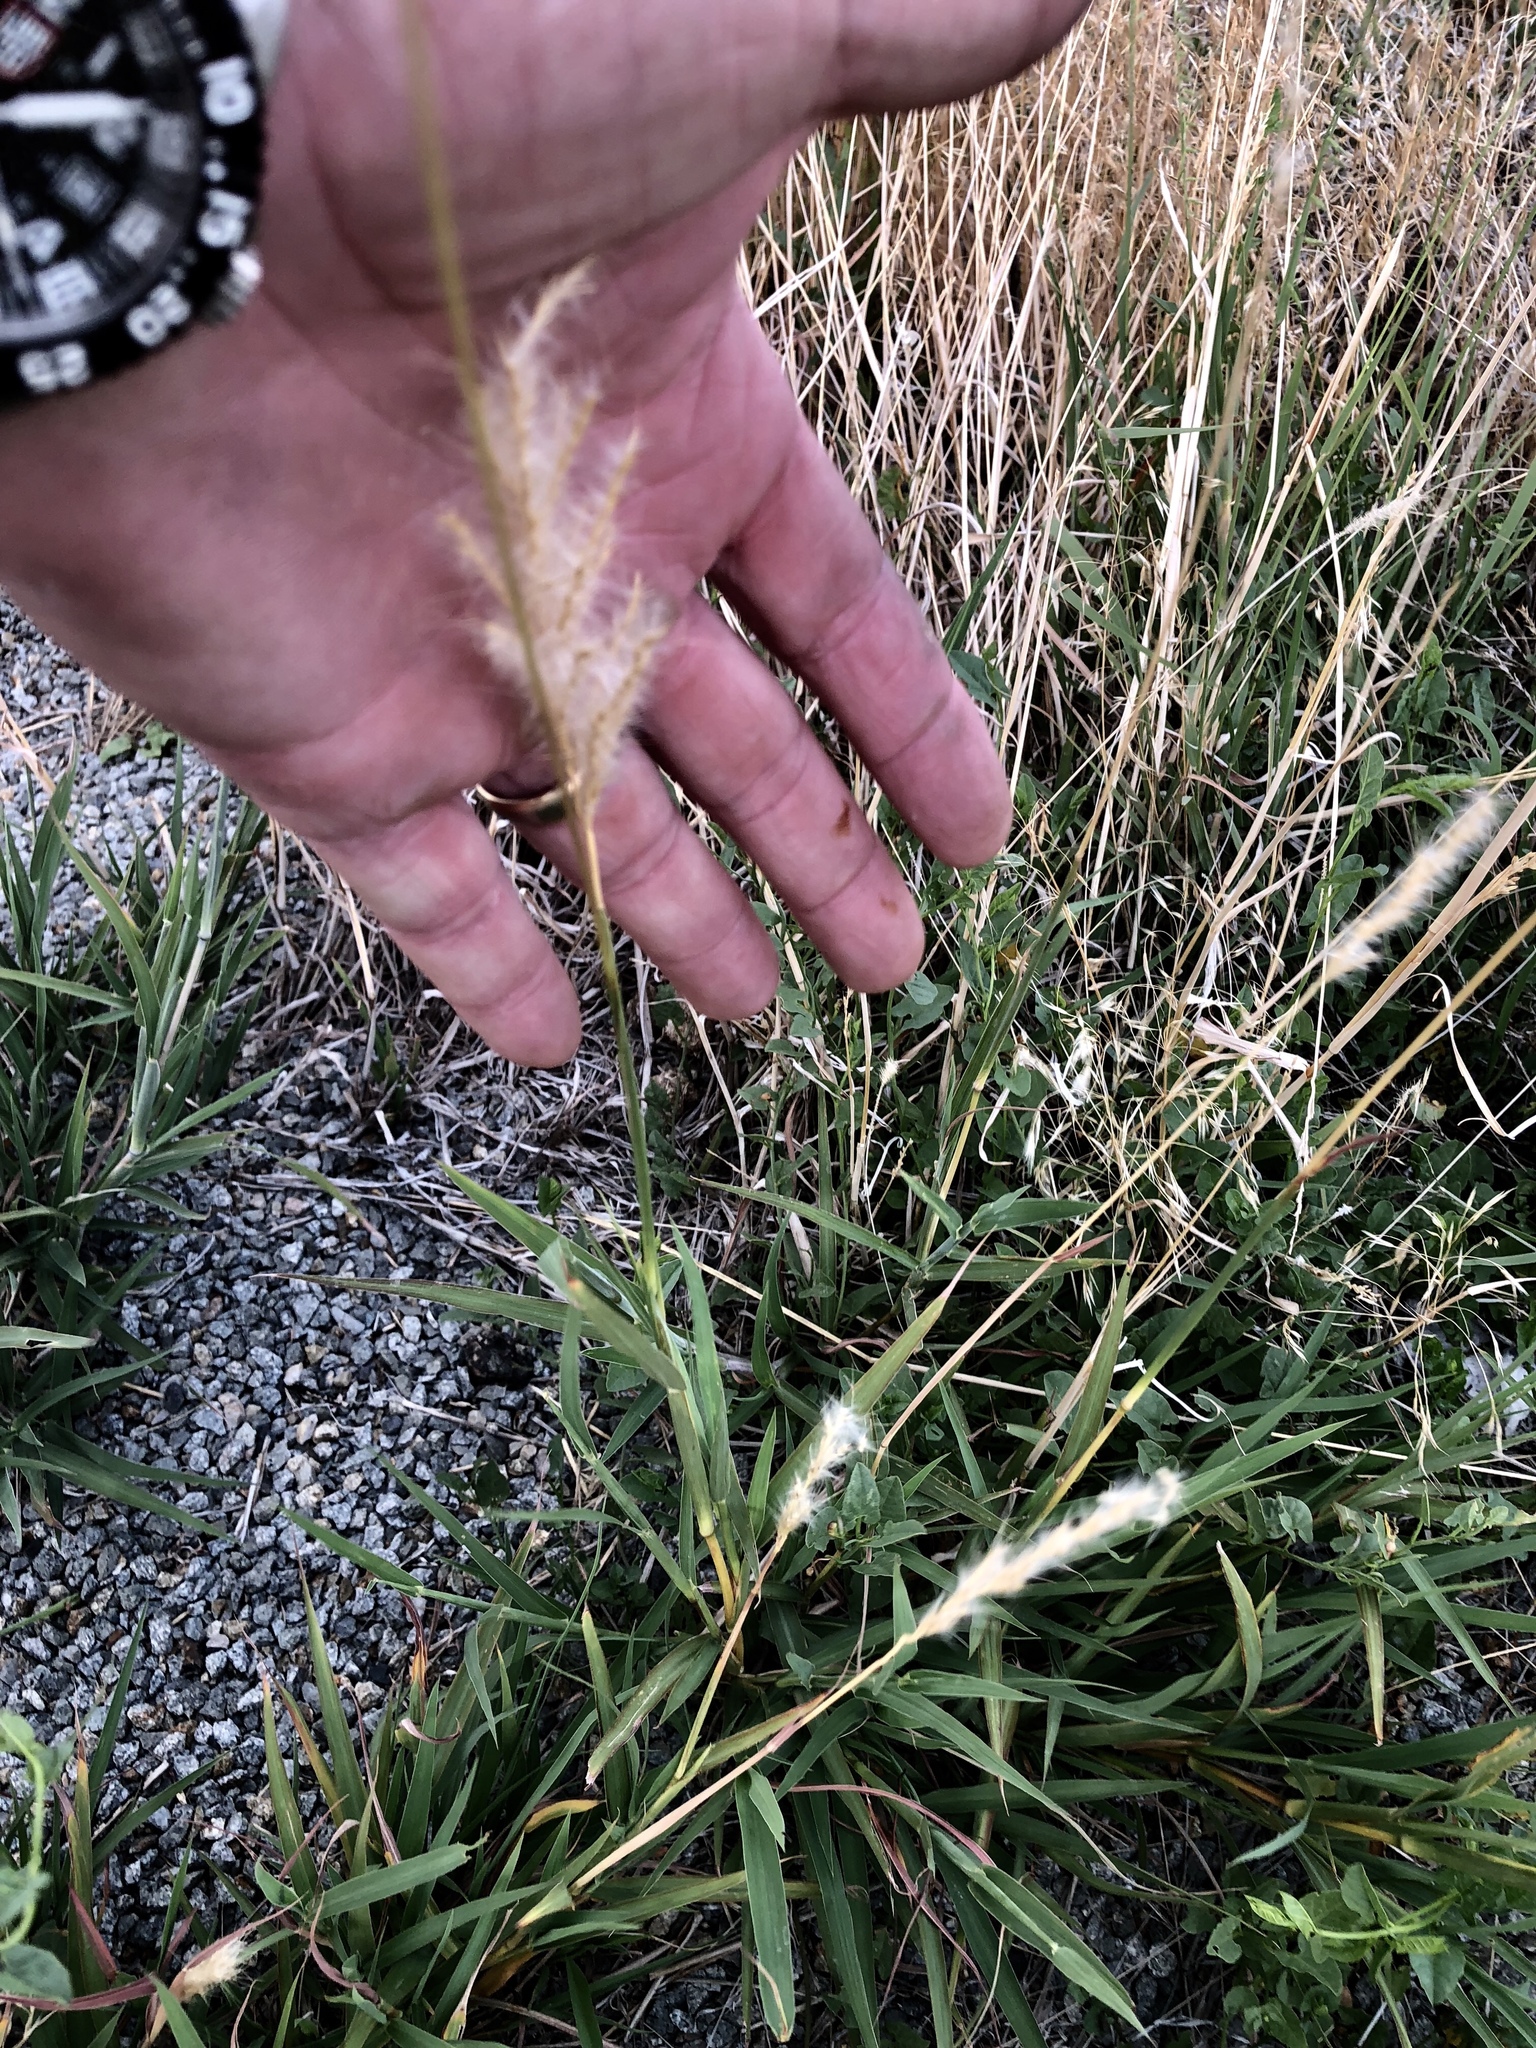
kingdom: Plantae
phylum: Tracheophyta
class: Liliopsida
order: Poales
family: Poaceae
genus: Bothriochloa
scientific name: Bothriochloa torreyana
